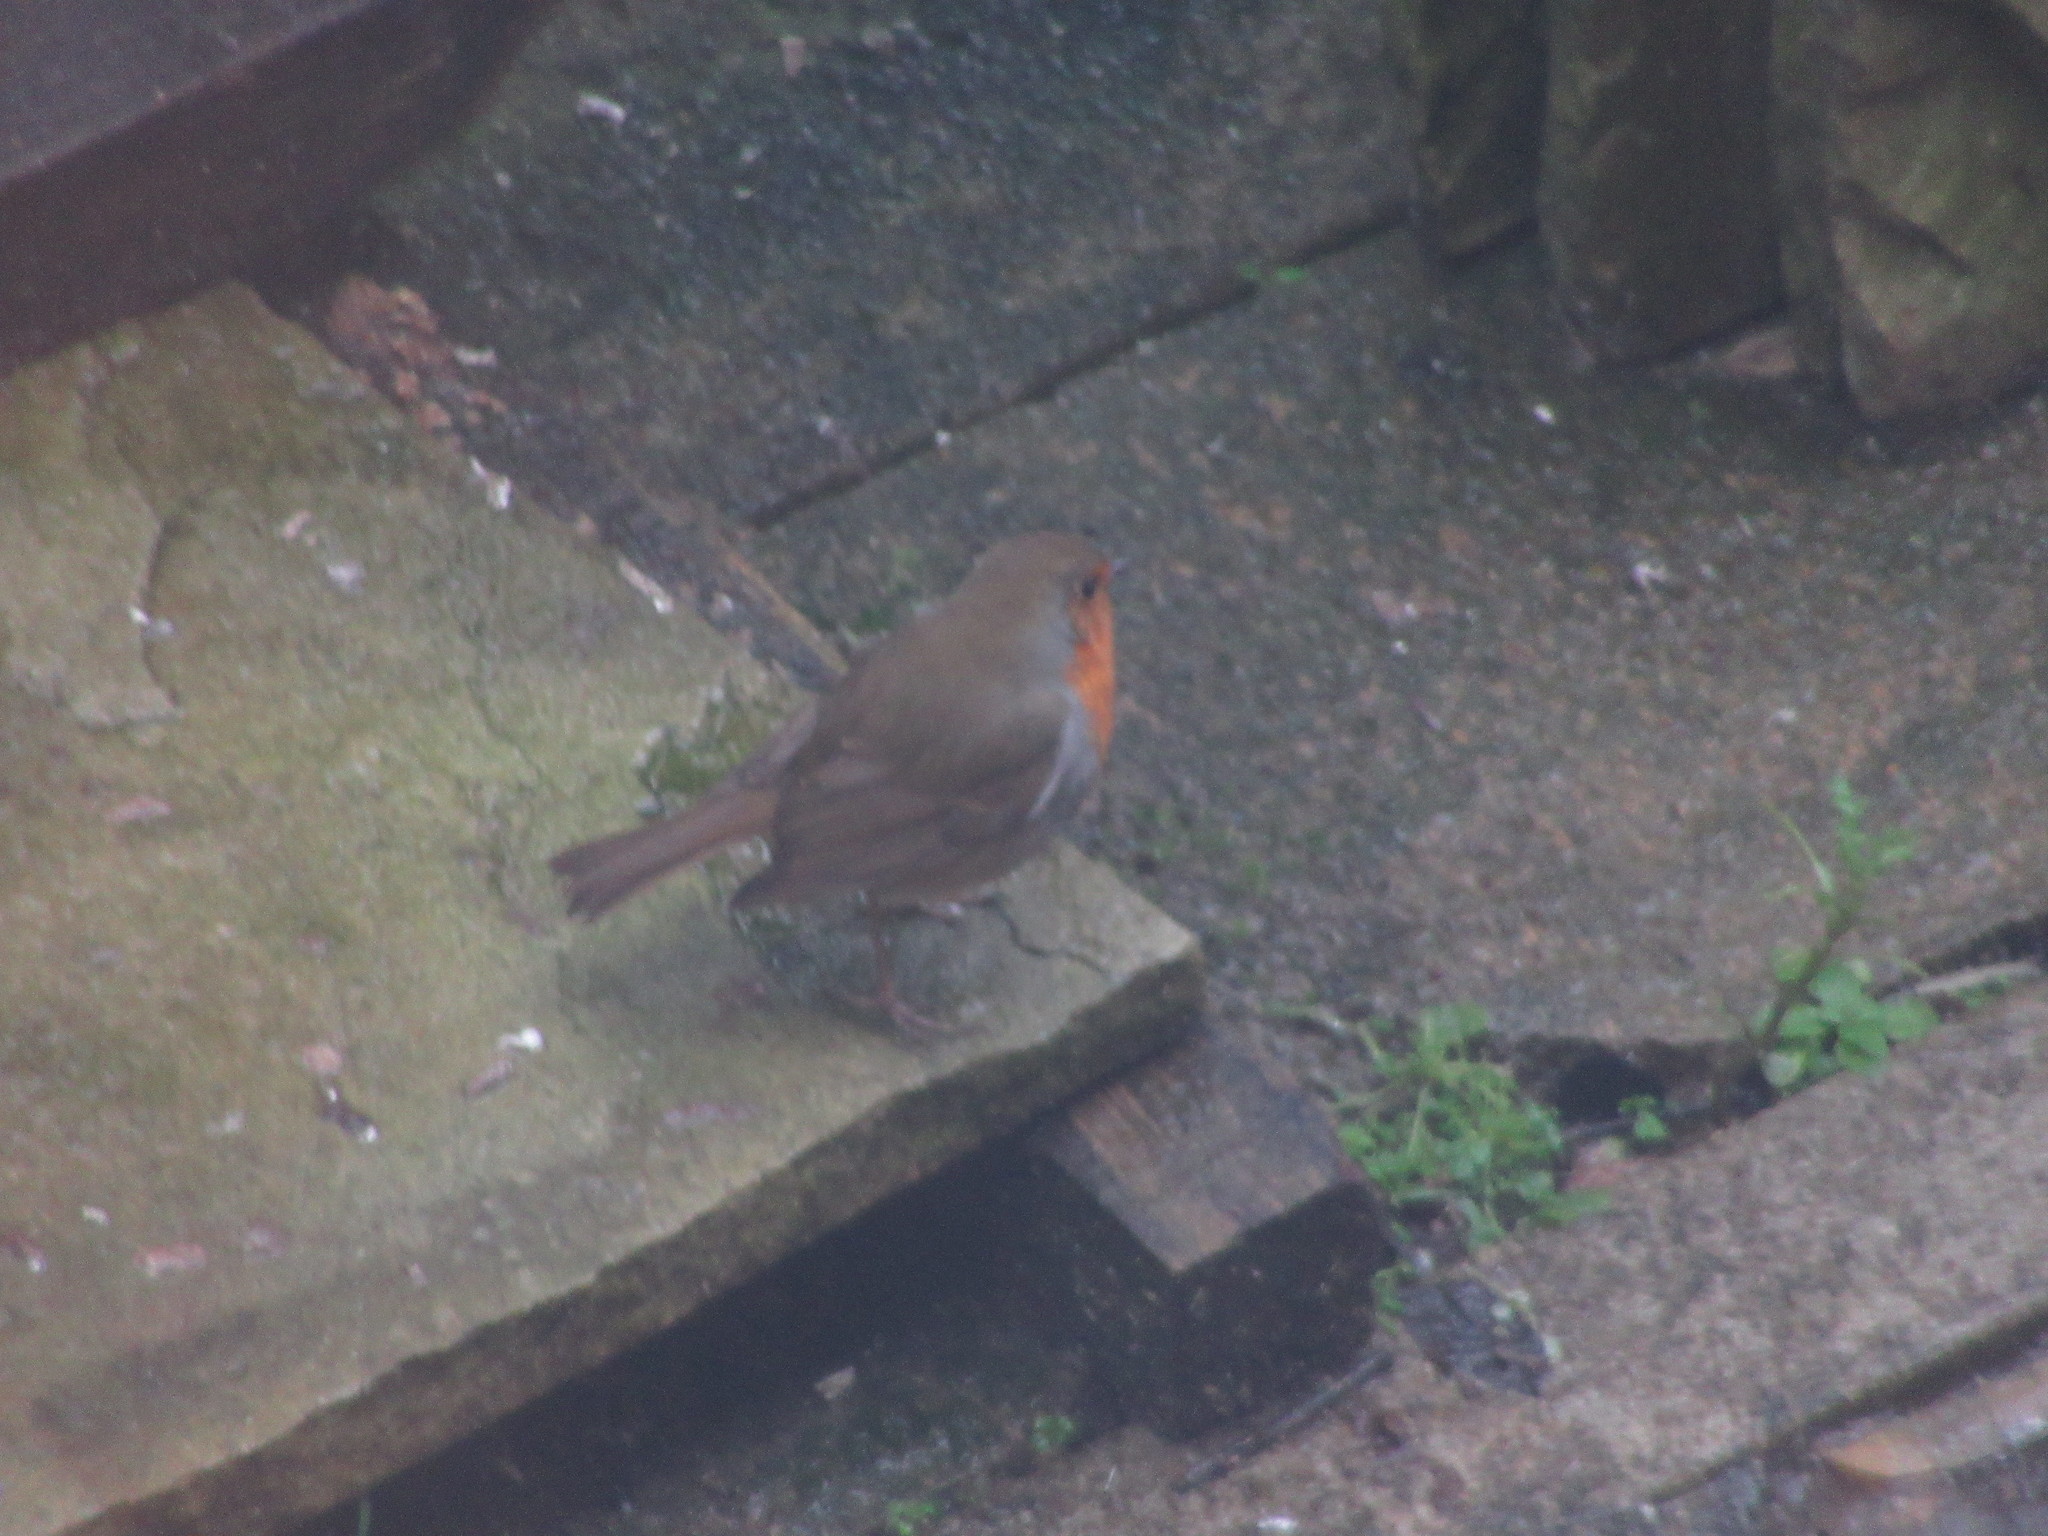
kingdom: Animalia
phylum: Chordata
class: Aves
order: Passeriformes
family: Muscicapidae
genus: Erithacus
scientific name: Erithacus rubecula
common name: European robin
